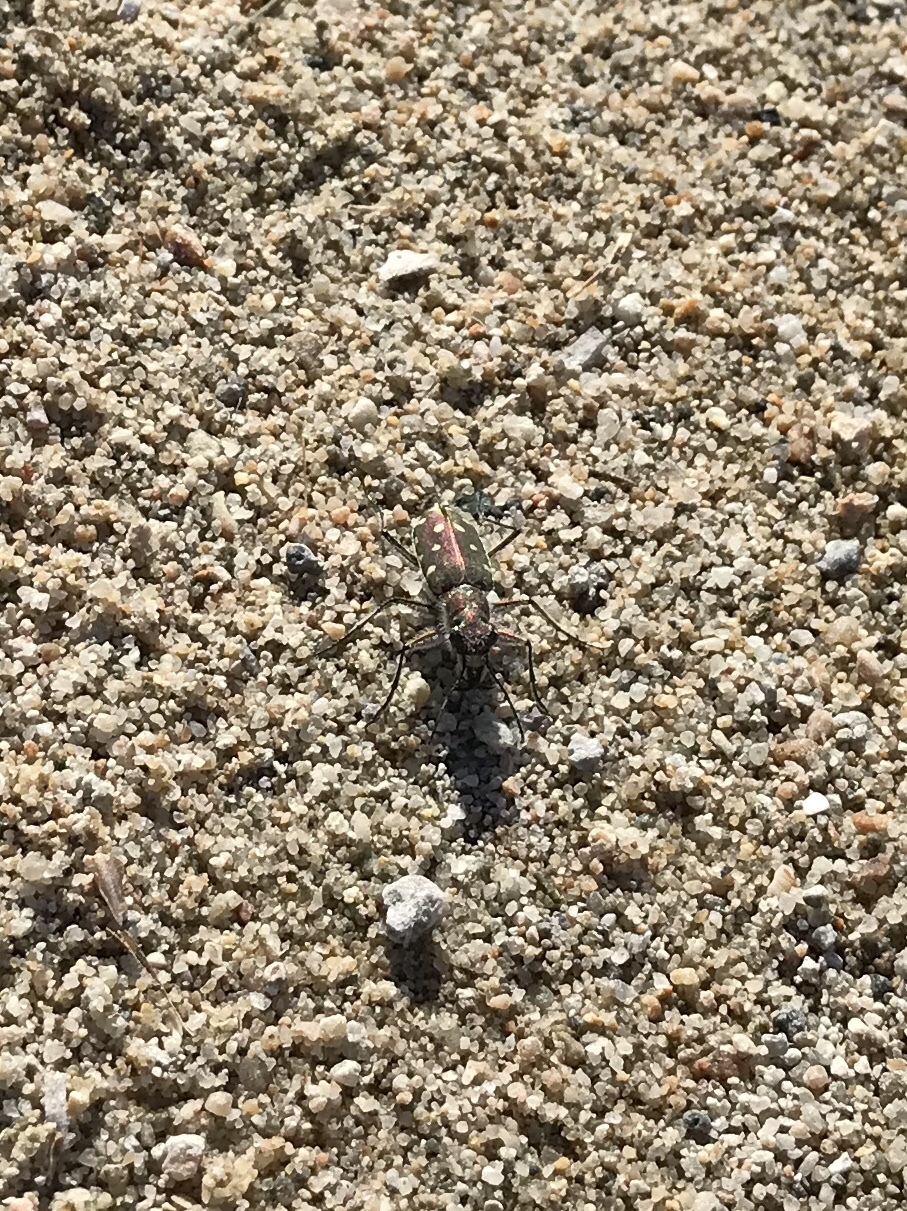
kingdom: Animalia
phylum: Arthropoda
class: Insecta
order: Coleoptera
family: Carabidae
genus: Cicindela
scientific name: Cicindela littoralis
